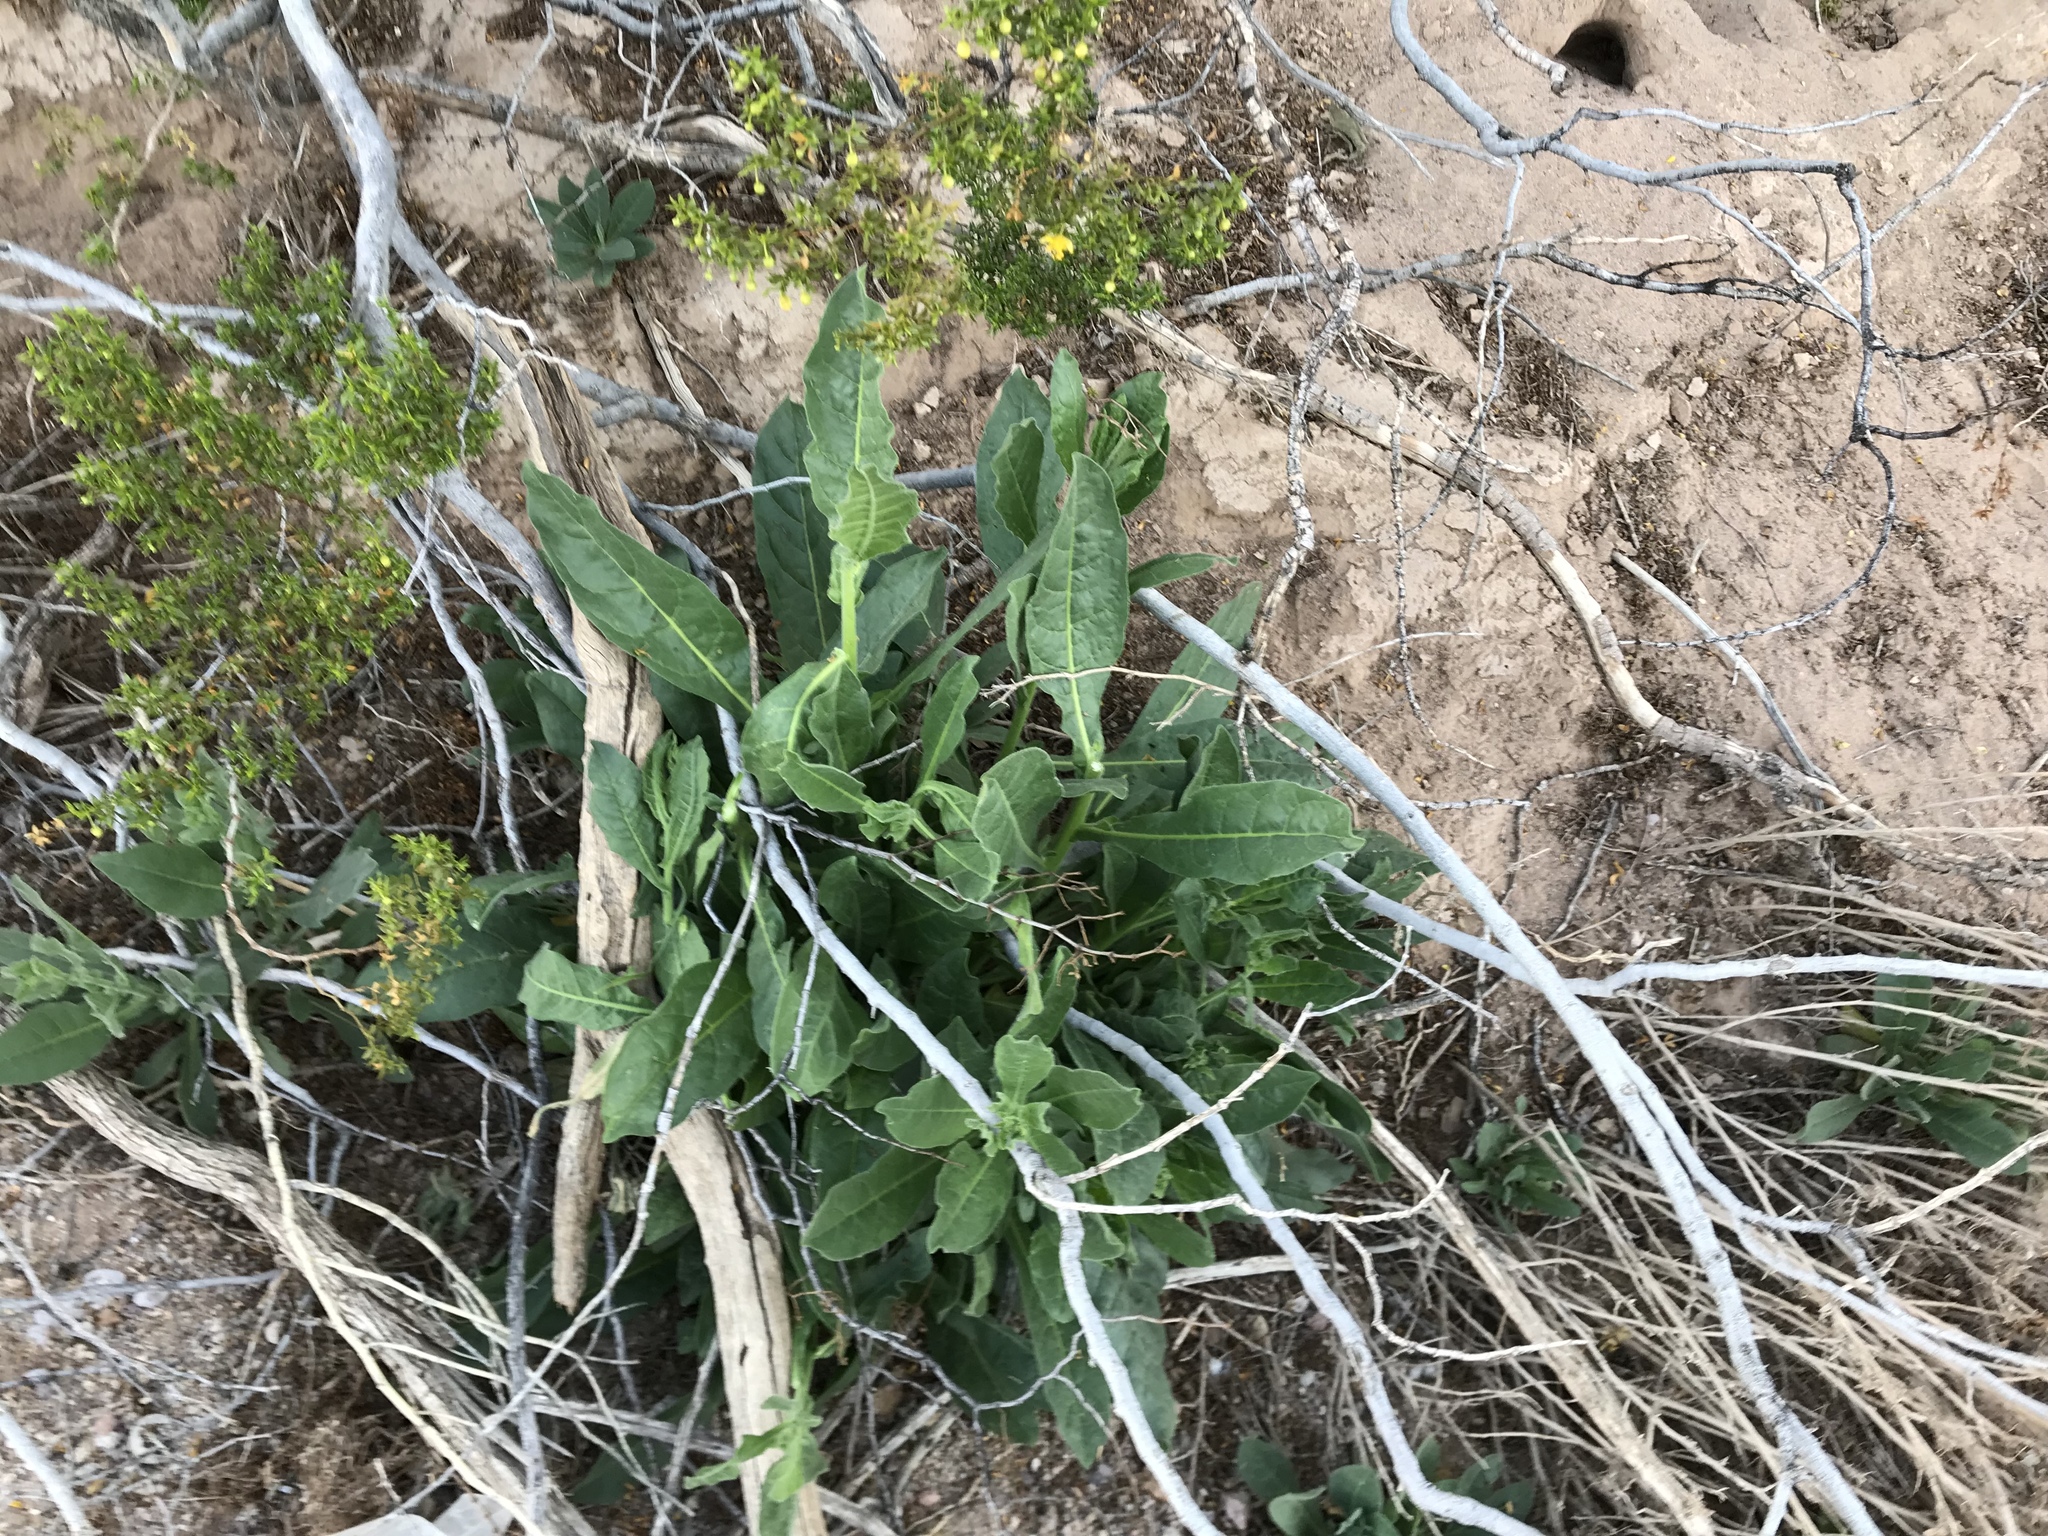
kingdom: Plantae
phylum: Tracheophyta
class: Magnoliopsida
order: Solanales
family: Solanaceae
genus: Nicotiana
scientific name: Nicotiana obtusifolia
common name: Desert tobacco
